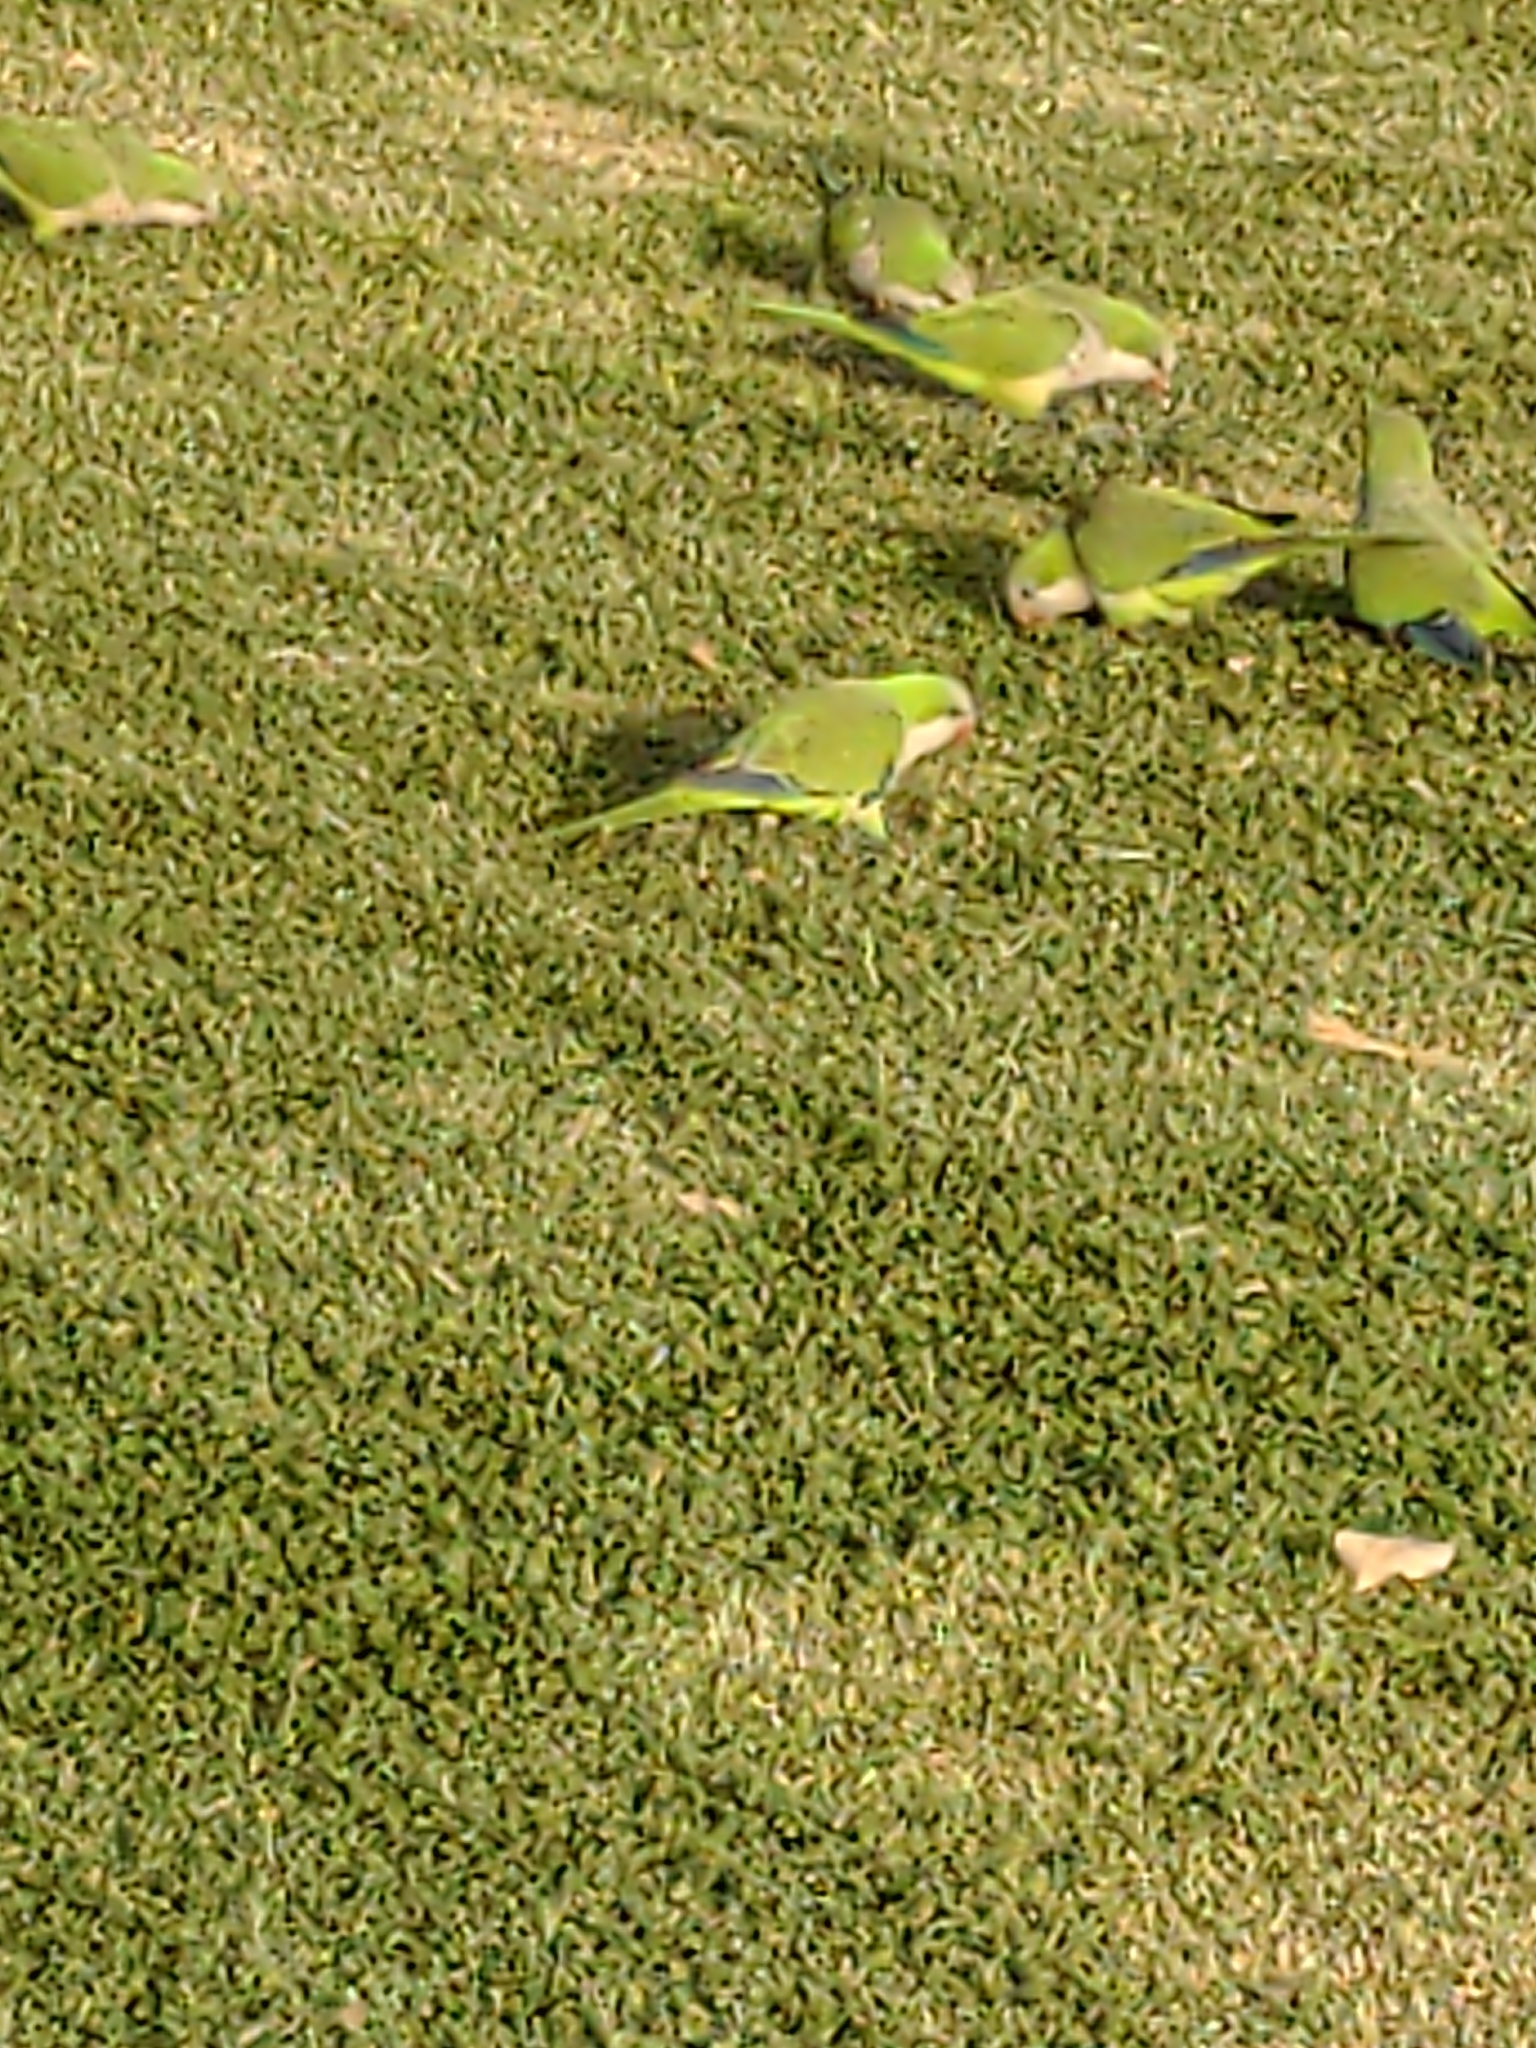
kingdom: Animalia
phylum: Chordata
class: Aves
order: Psittaciformes
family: Psittacidae
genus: Myiopsitta
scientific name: Myiopsitta monachus
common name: Monk parakeet
